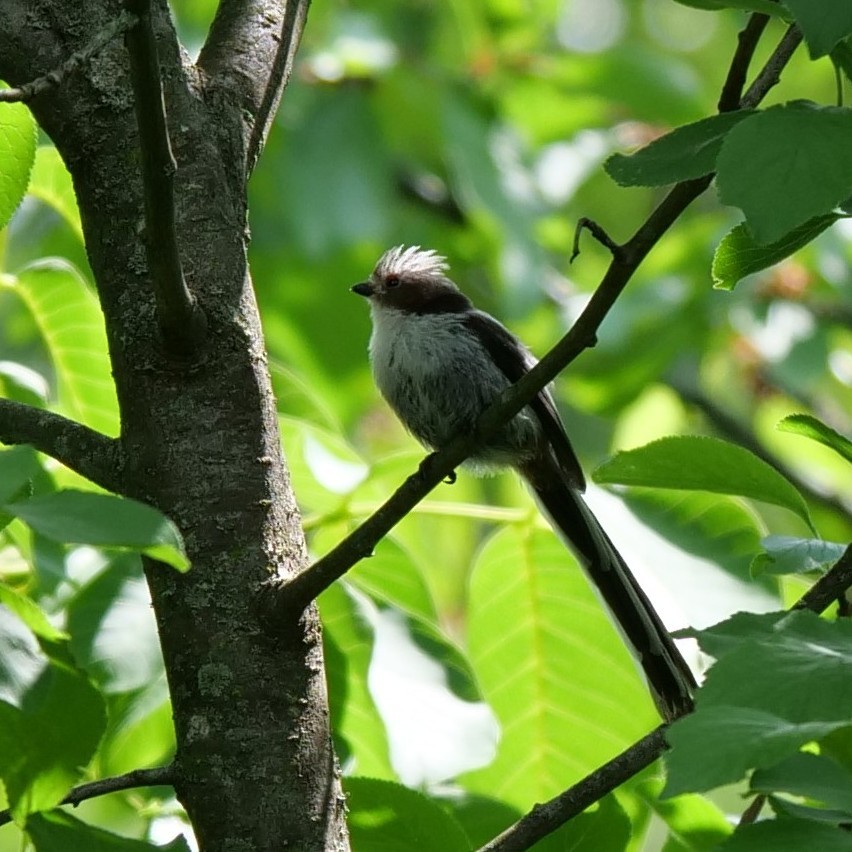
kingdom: Animalia
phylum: Chordata
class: Aves
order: Passeriformes
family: Aegithalidae
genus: Aegithalos
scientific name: Aegithalos caudatus
